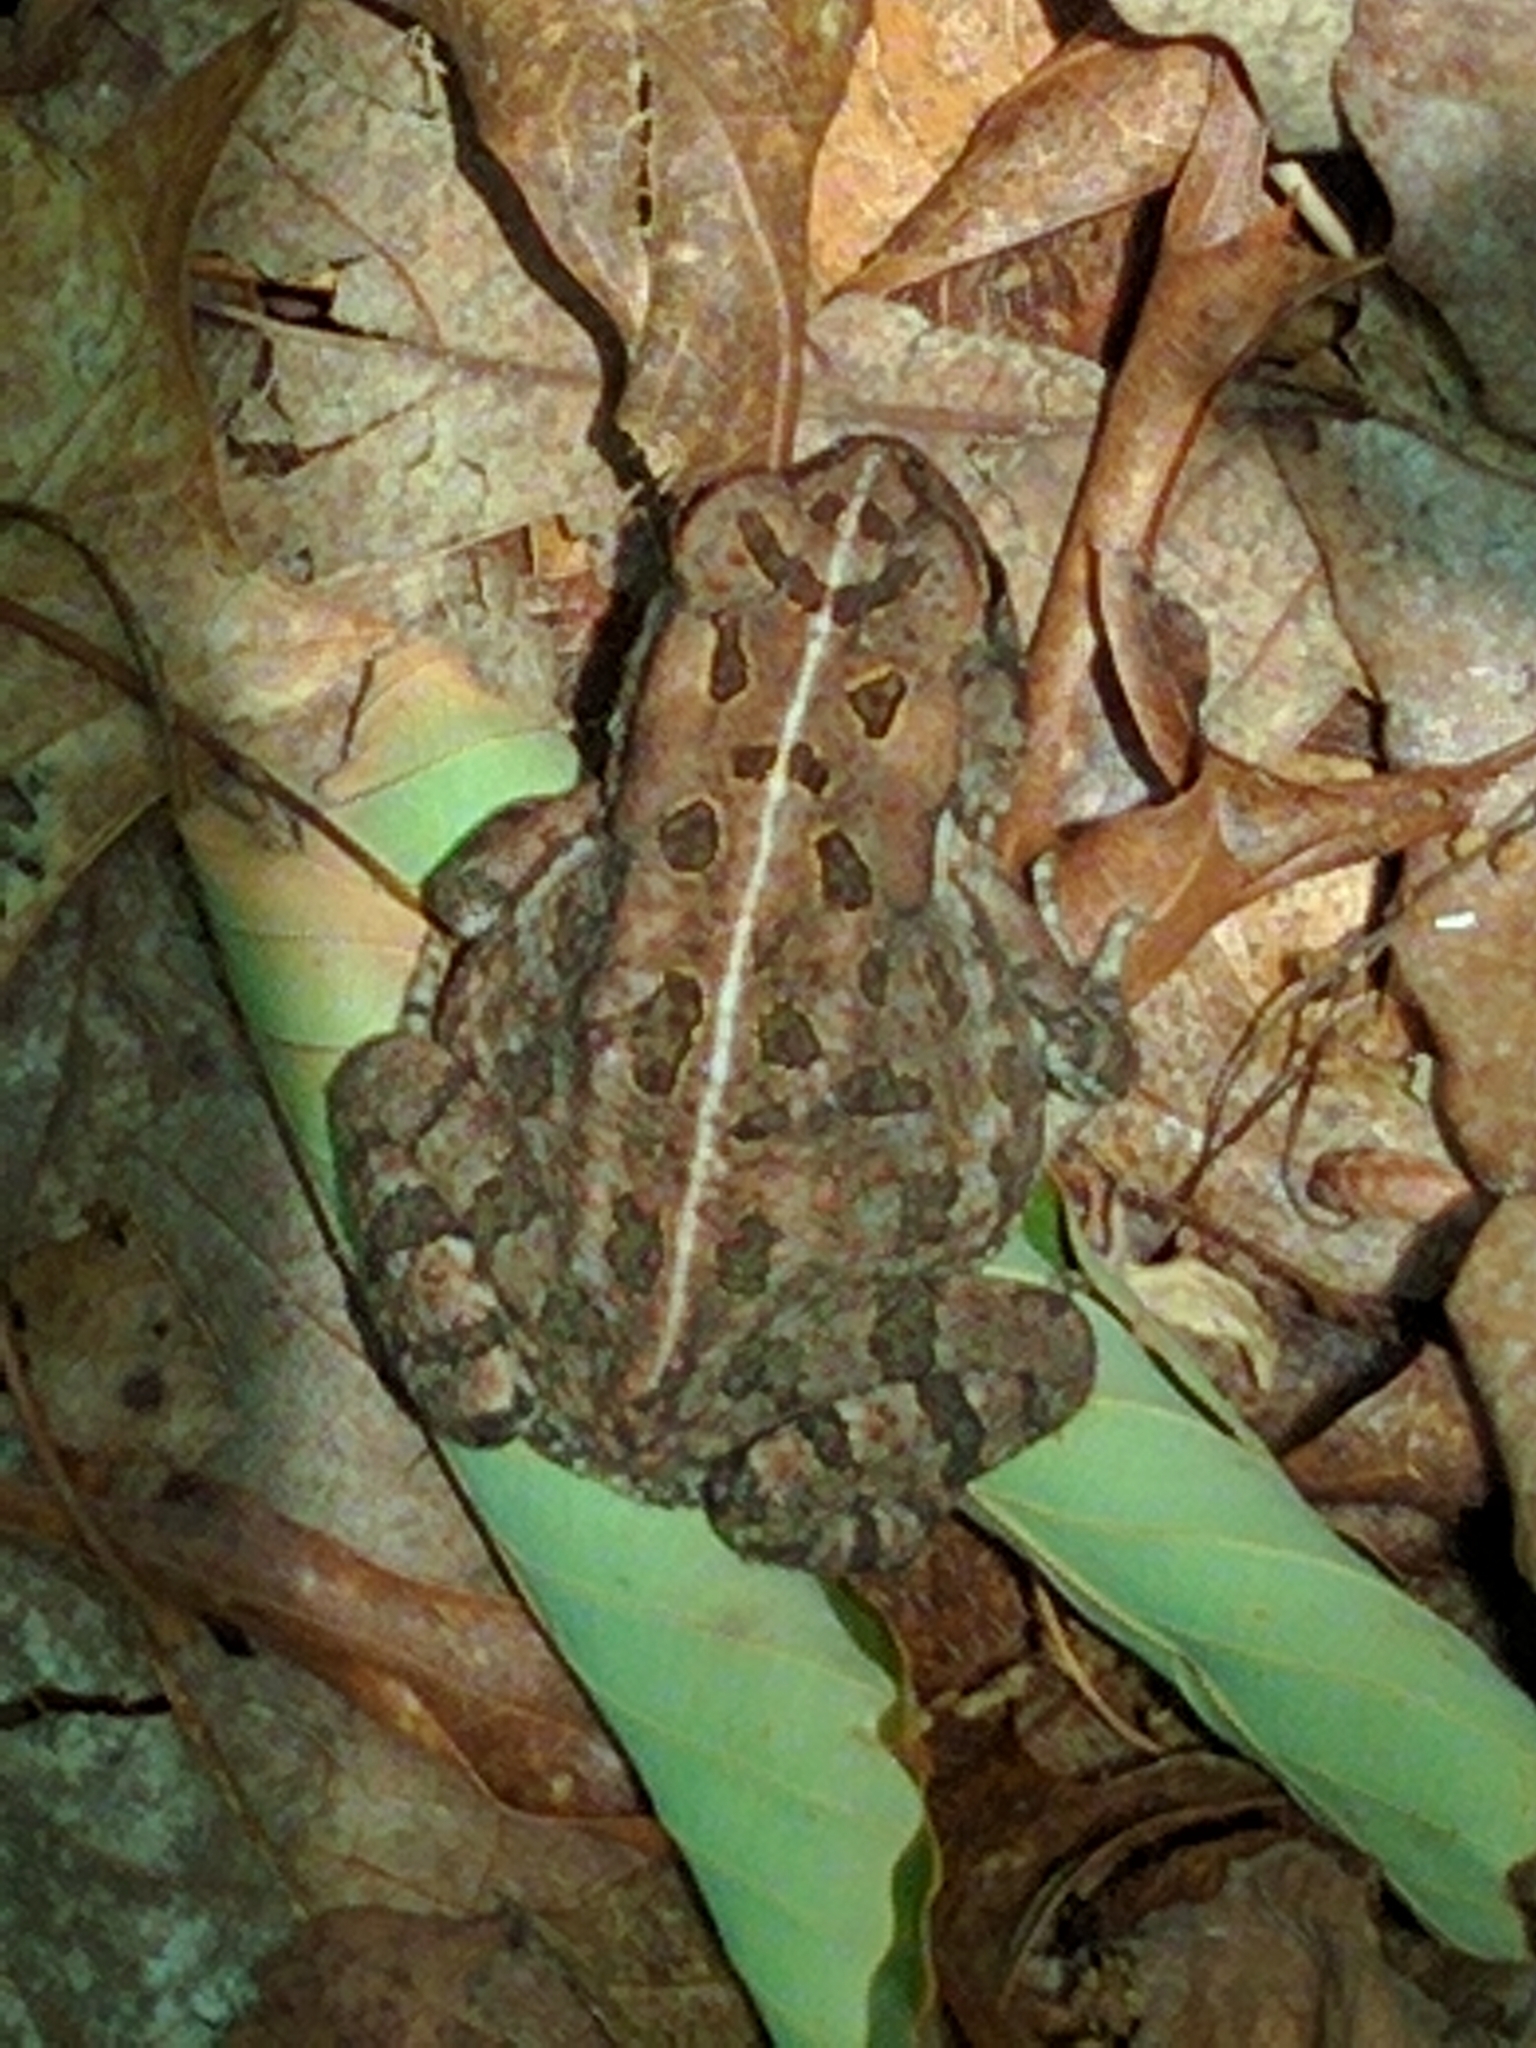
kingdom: Animalia
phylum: Chordata
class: Amphibia
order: Anura
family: Bufonidae
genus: Anaxyrus
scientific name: Anaxyrus fowleri
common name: Fowler's toad
